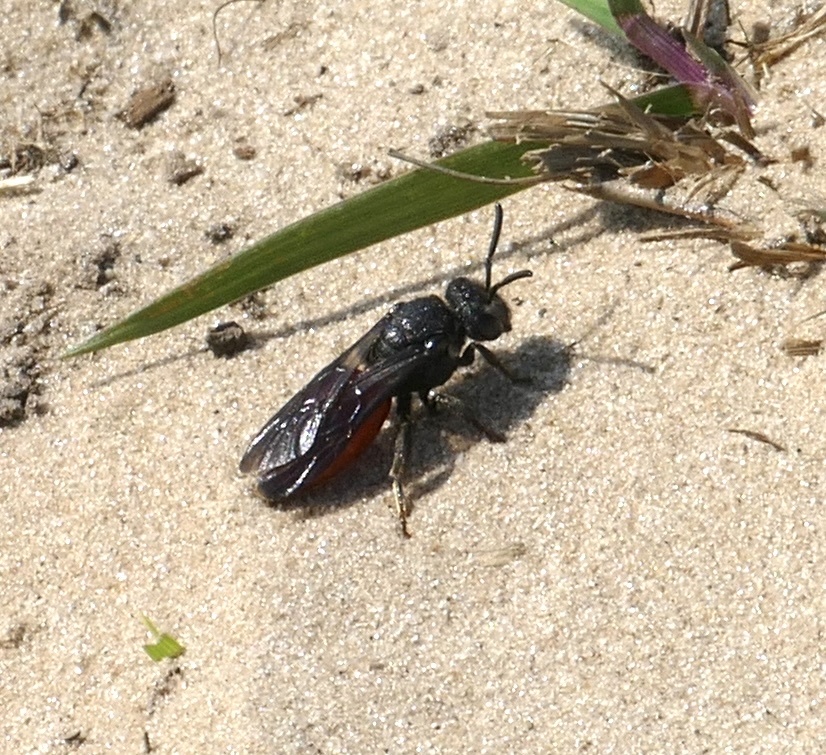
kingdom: Animalia
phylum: Arthropoda
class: Insecta
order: Hymenoptera
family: Halictidae
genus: Sphecodes
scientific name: Sphecodes albilabris
